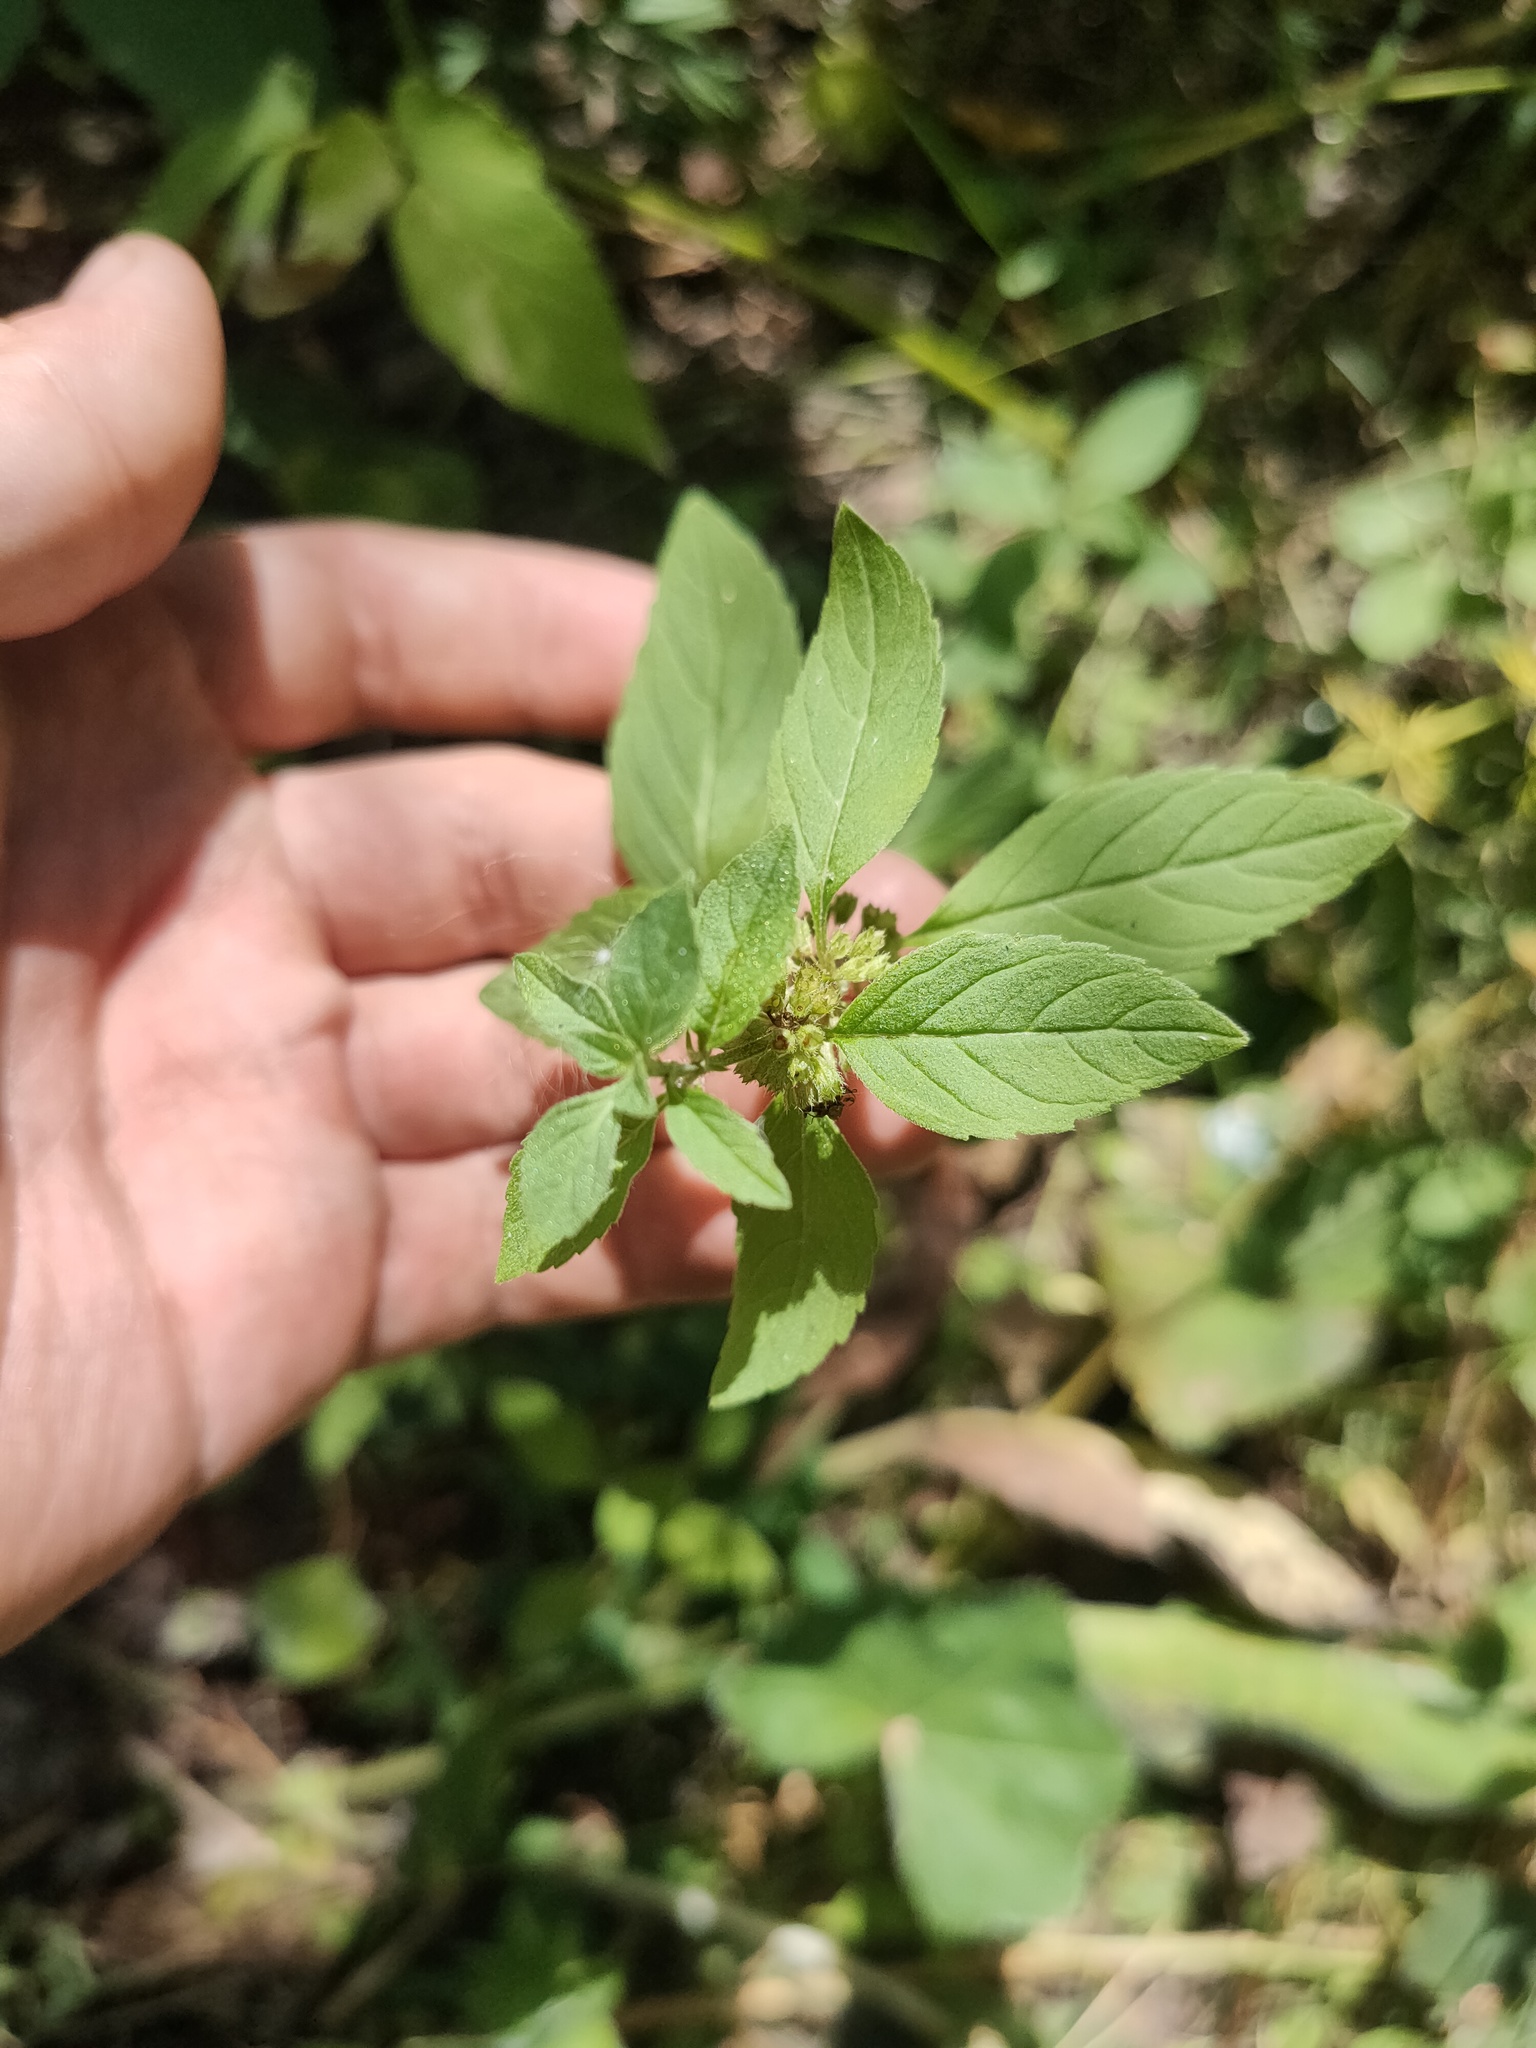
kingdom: Plantae
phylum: Tracheophyta
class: Magnoliopsida
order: Lamiales
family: Lamiaceae
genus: Mentha
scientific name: Mentha arvensis
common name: Corn mint
